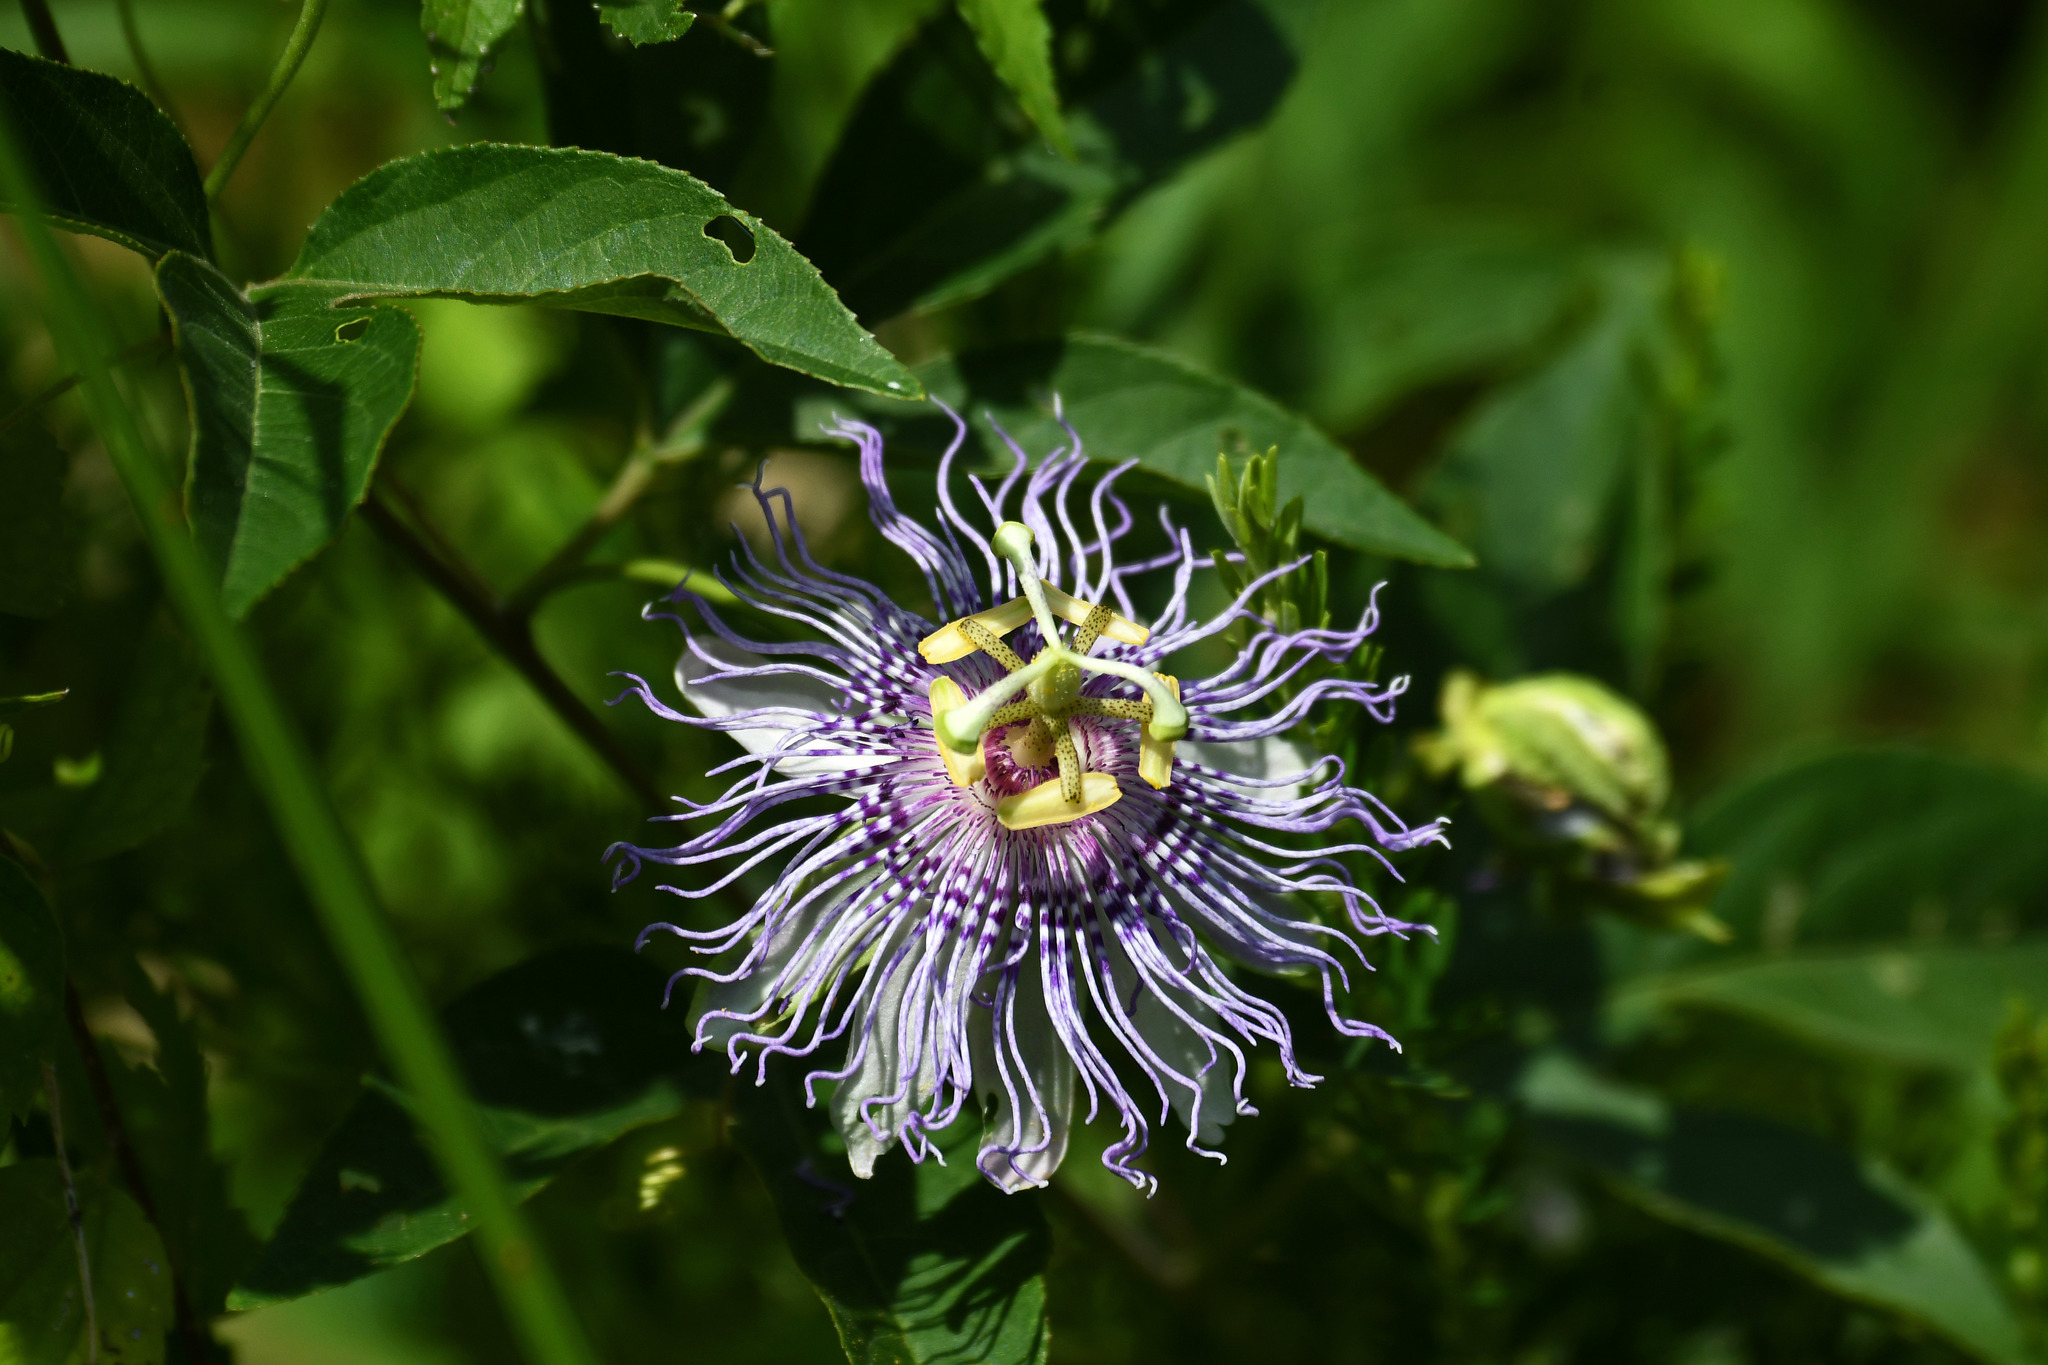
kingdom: Plantae
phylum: Tracheophyta
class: Magnoliopsida
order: Malpighiales
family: Passifloraceae
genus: Passiflora
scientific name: Passiflora incarnata
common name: Apricot-vine
